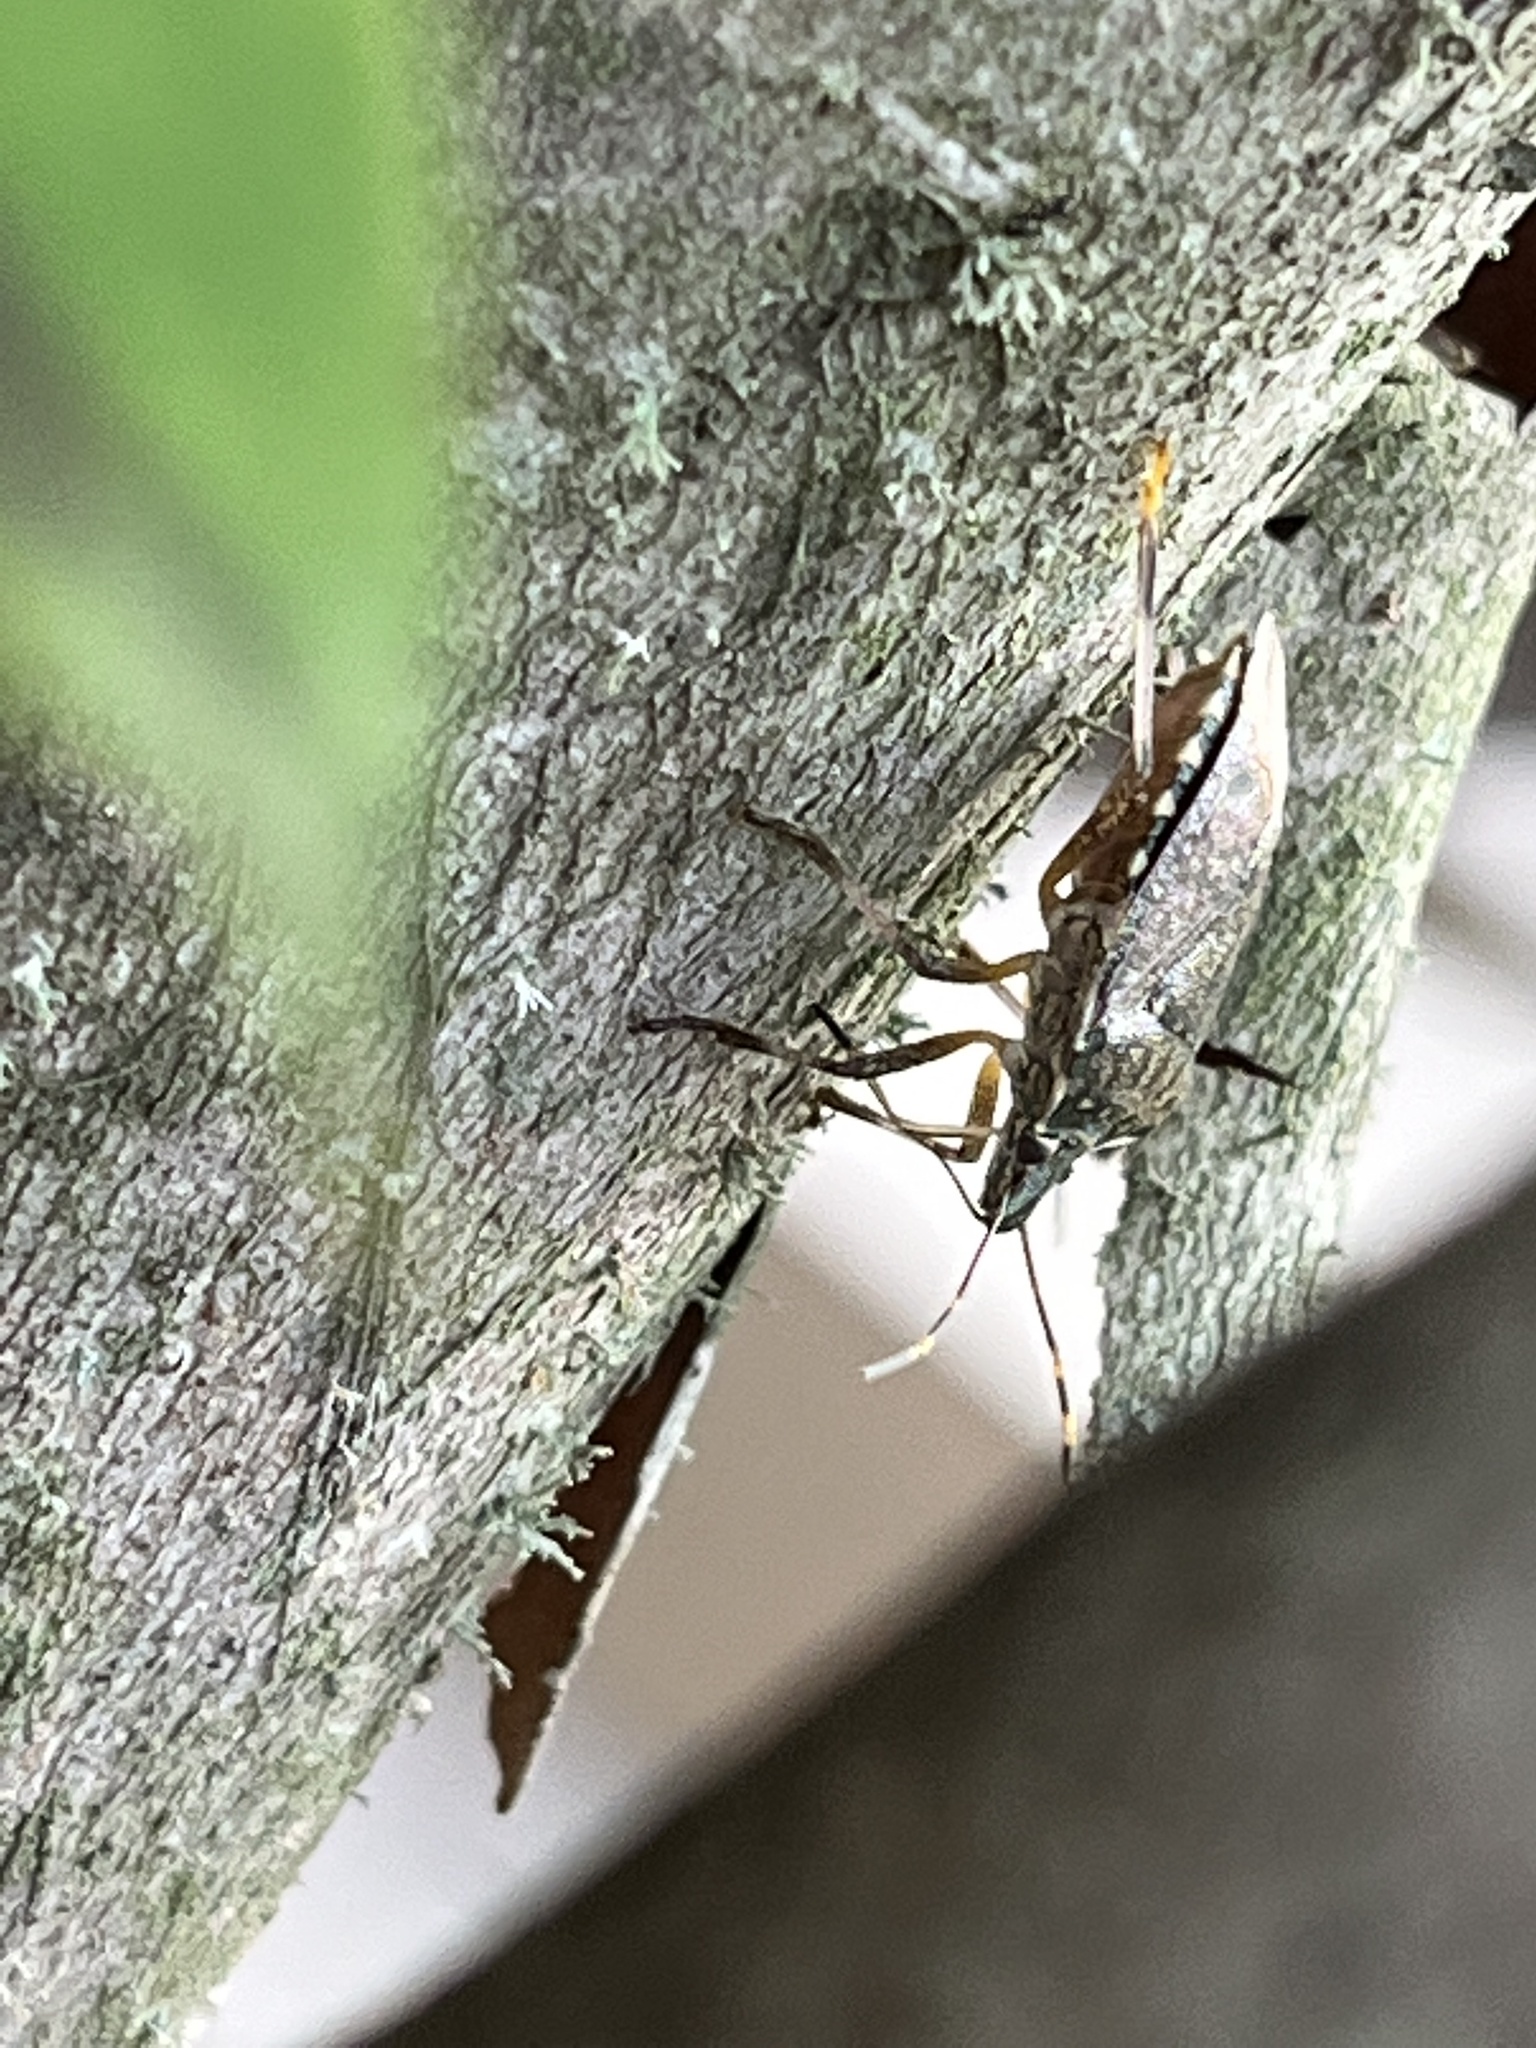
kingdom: Animalia
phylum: Arthropoda
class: Insecta
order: Hemiptera
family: Pentatomidae
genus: Halyomorpha
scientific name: Halyomorpha halys
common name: Brown marmorated stink bug
